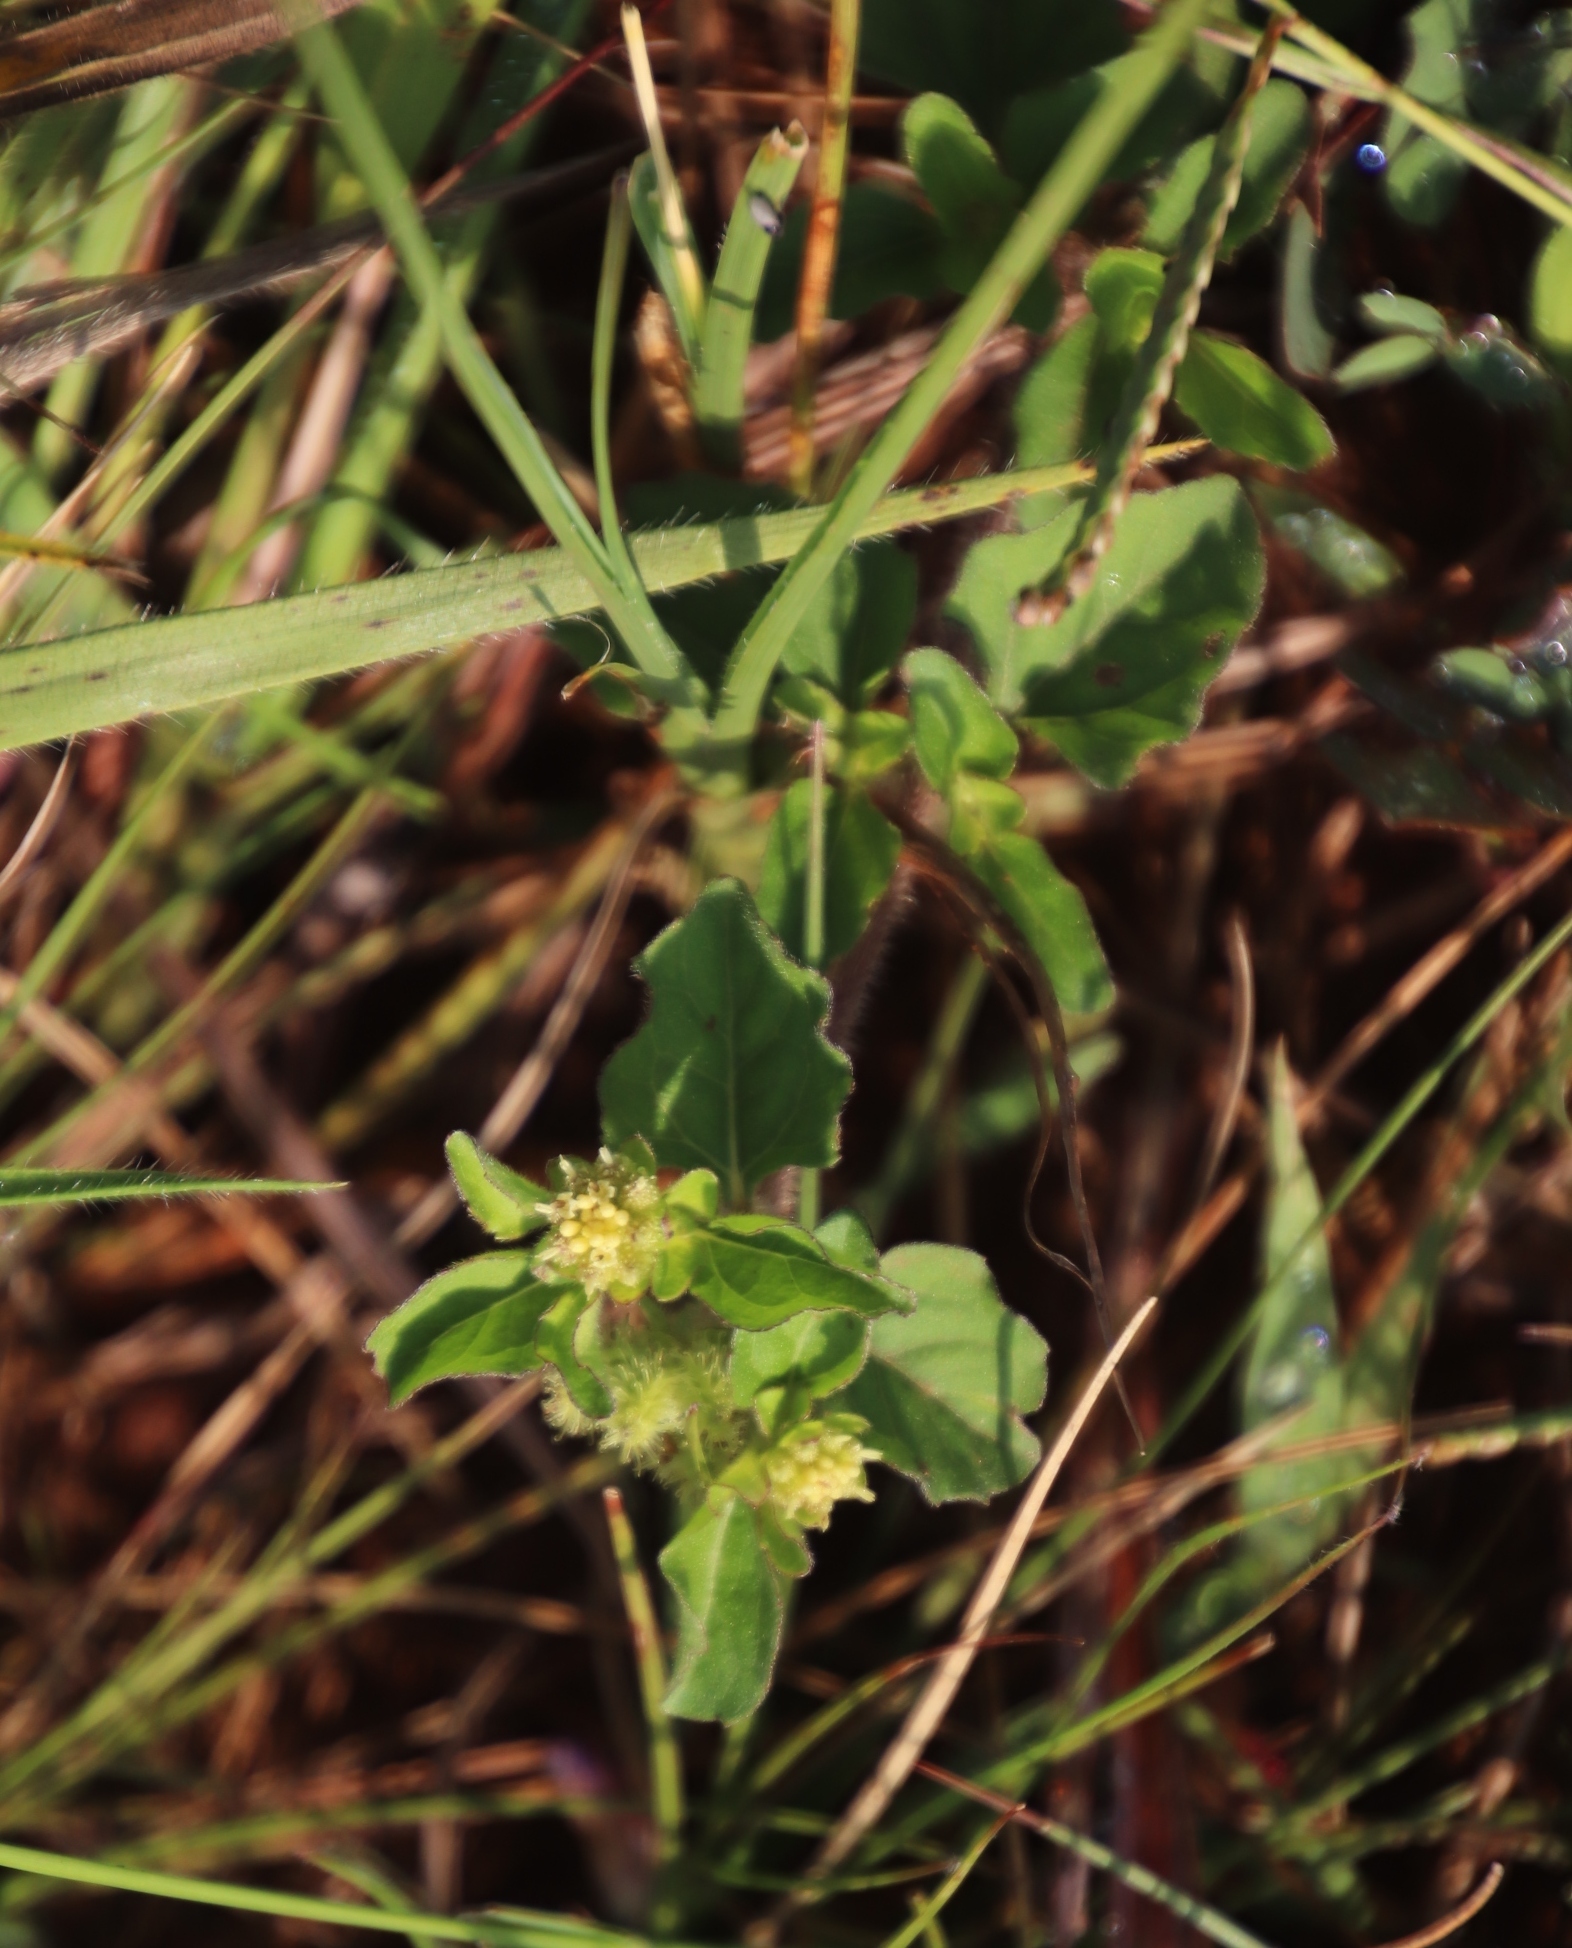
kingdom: Plantae
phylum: Tracheophyta
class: Magnoliopsida
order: Asterales
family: Asteraceae
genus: Acanthospermum
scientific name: Acanthospermum australe
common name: Paraguayan starbur
